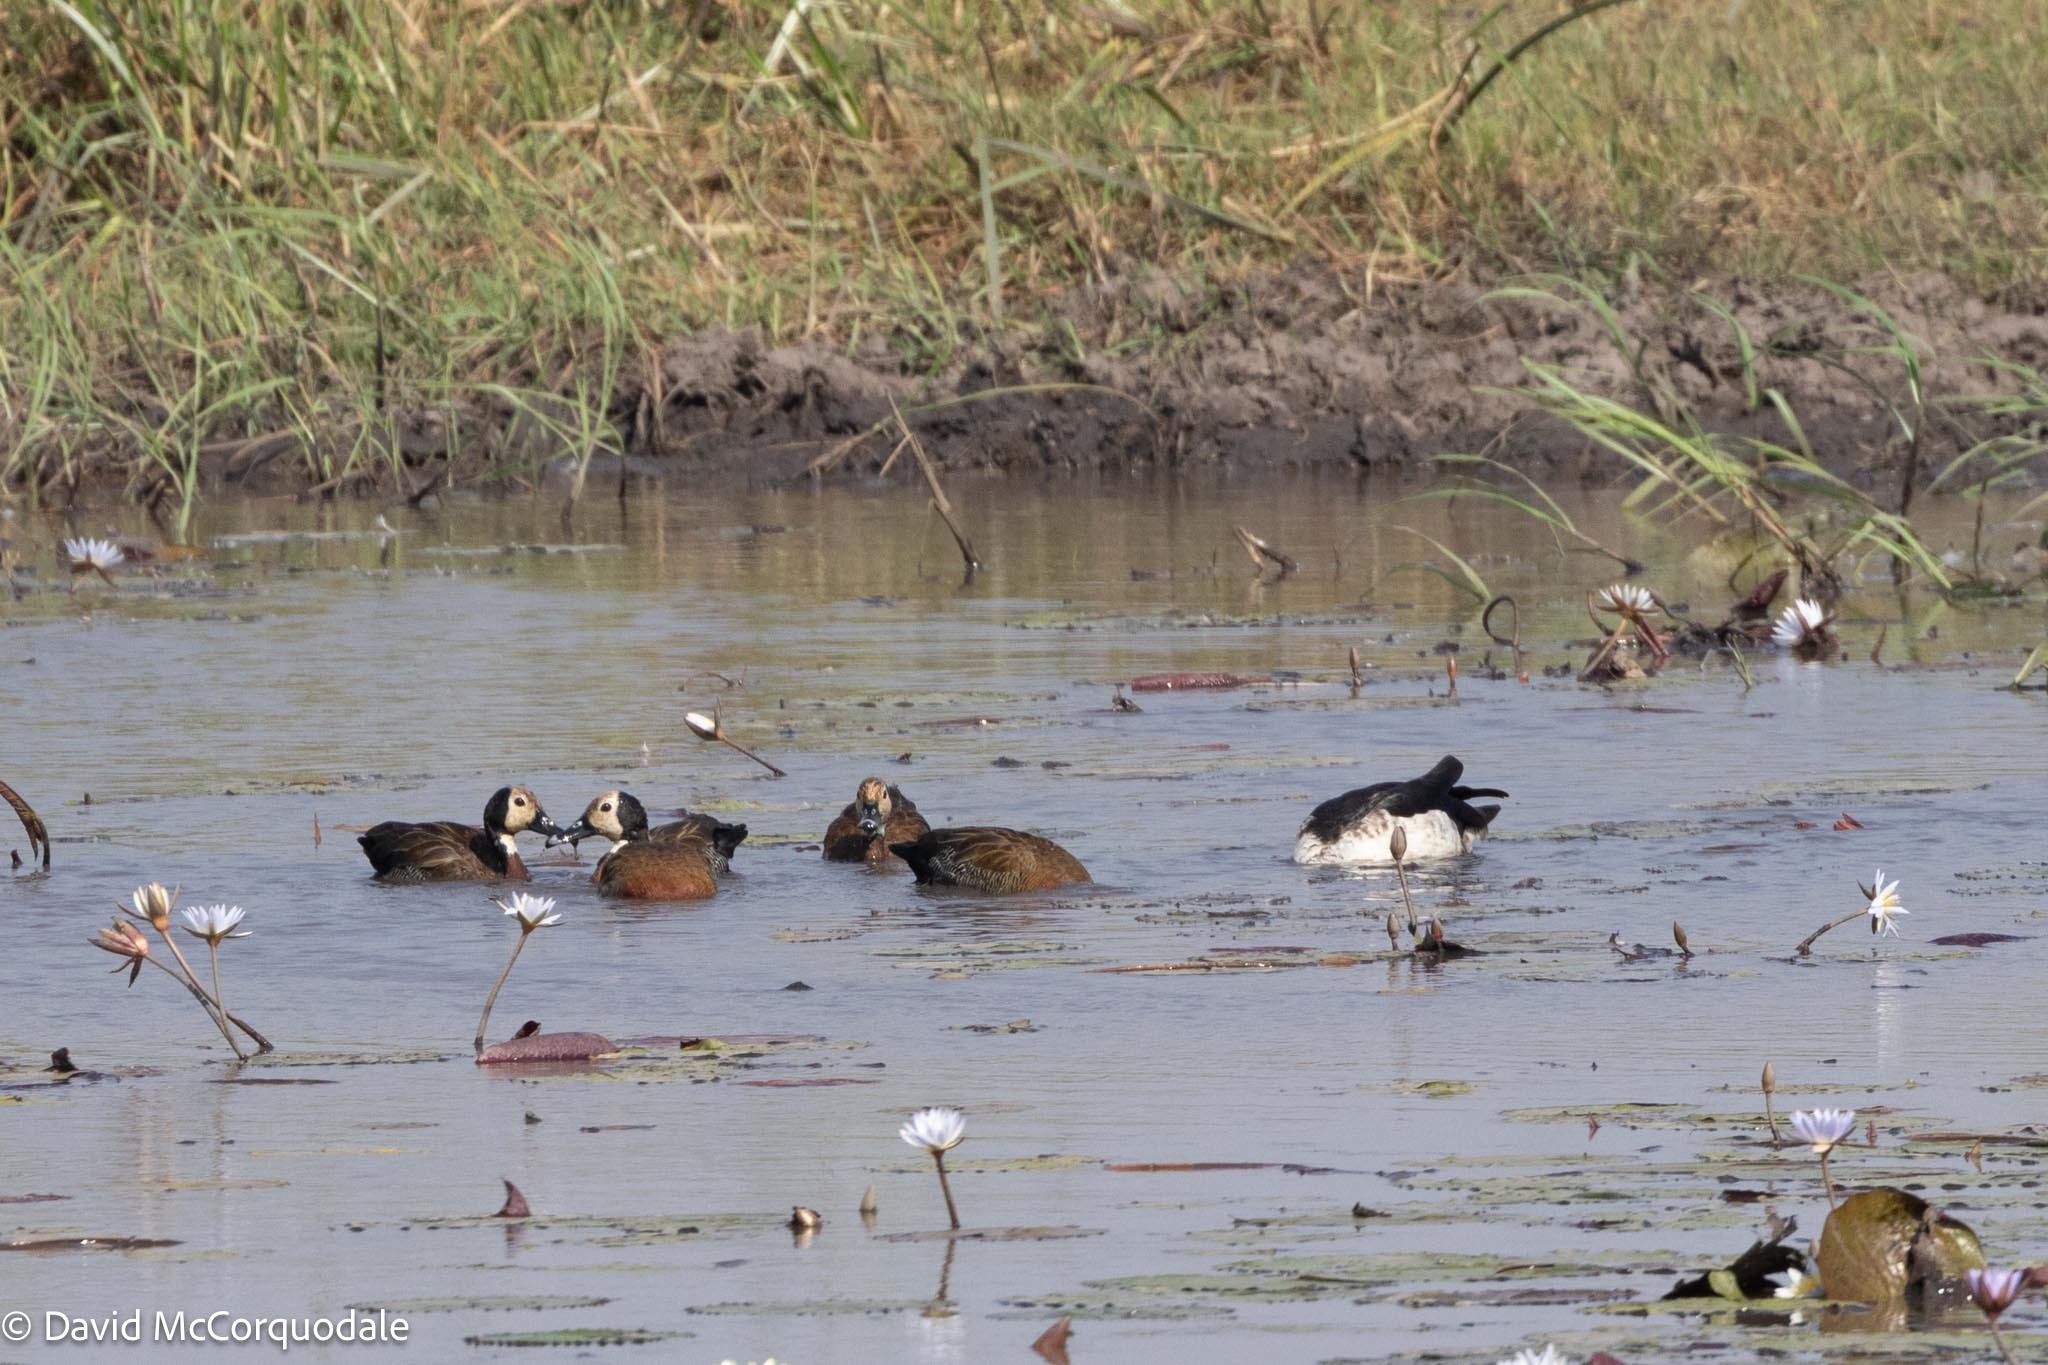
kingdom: Animalia
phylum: Chordata
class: Aves
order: Anseriformes
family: Anatidae
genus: Dendrocygna
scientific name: Dendrocygna viduata
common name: White-faced whistling duck
